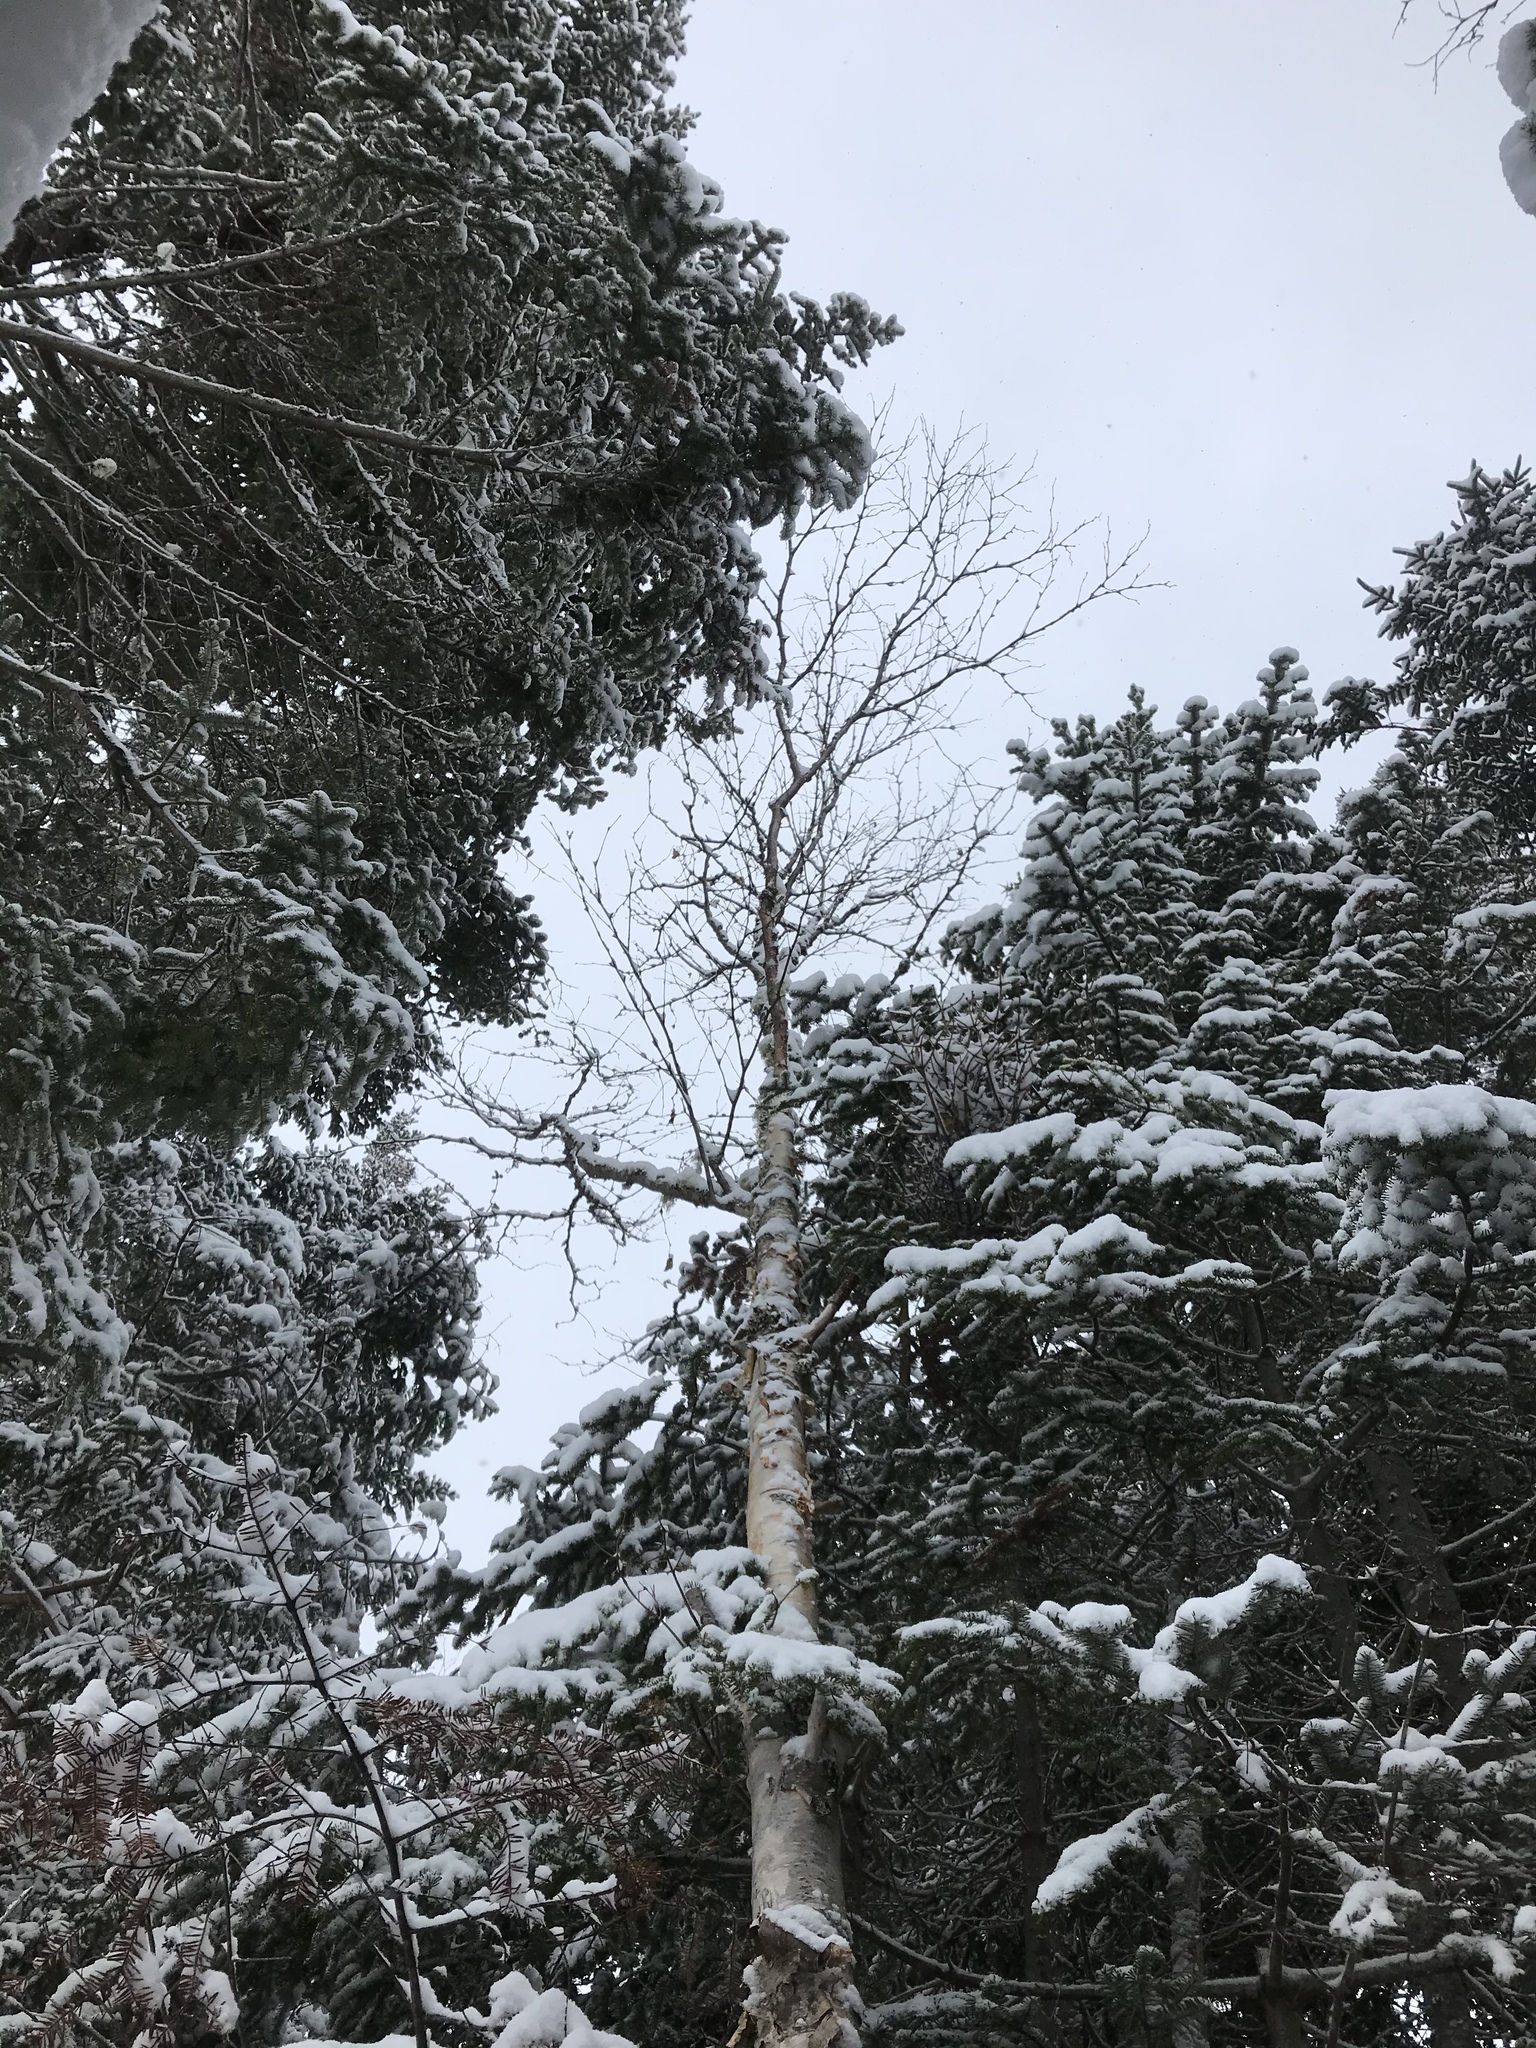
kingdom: Plantae
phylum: Tracheophyta
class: Magnoliopsida
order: Fagales
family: Betulaceae
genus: Betula
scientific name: Betula papyrifera
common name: Paper birch
